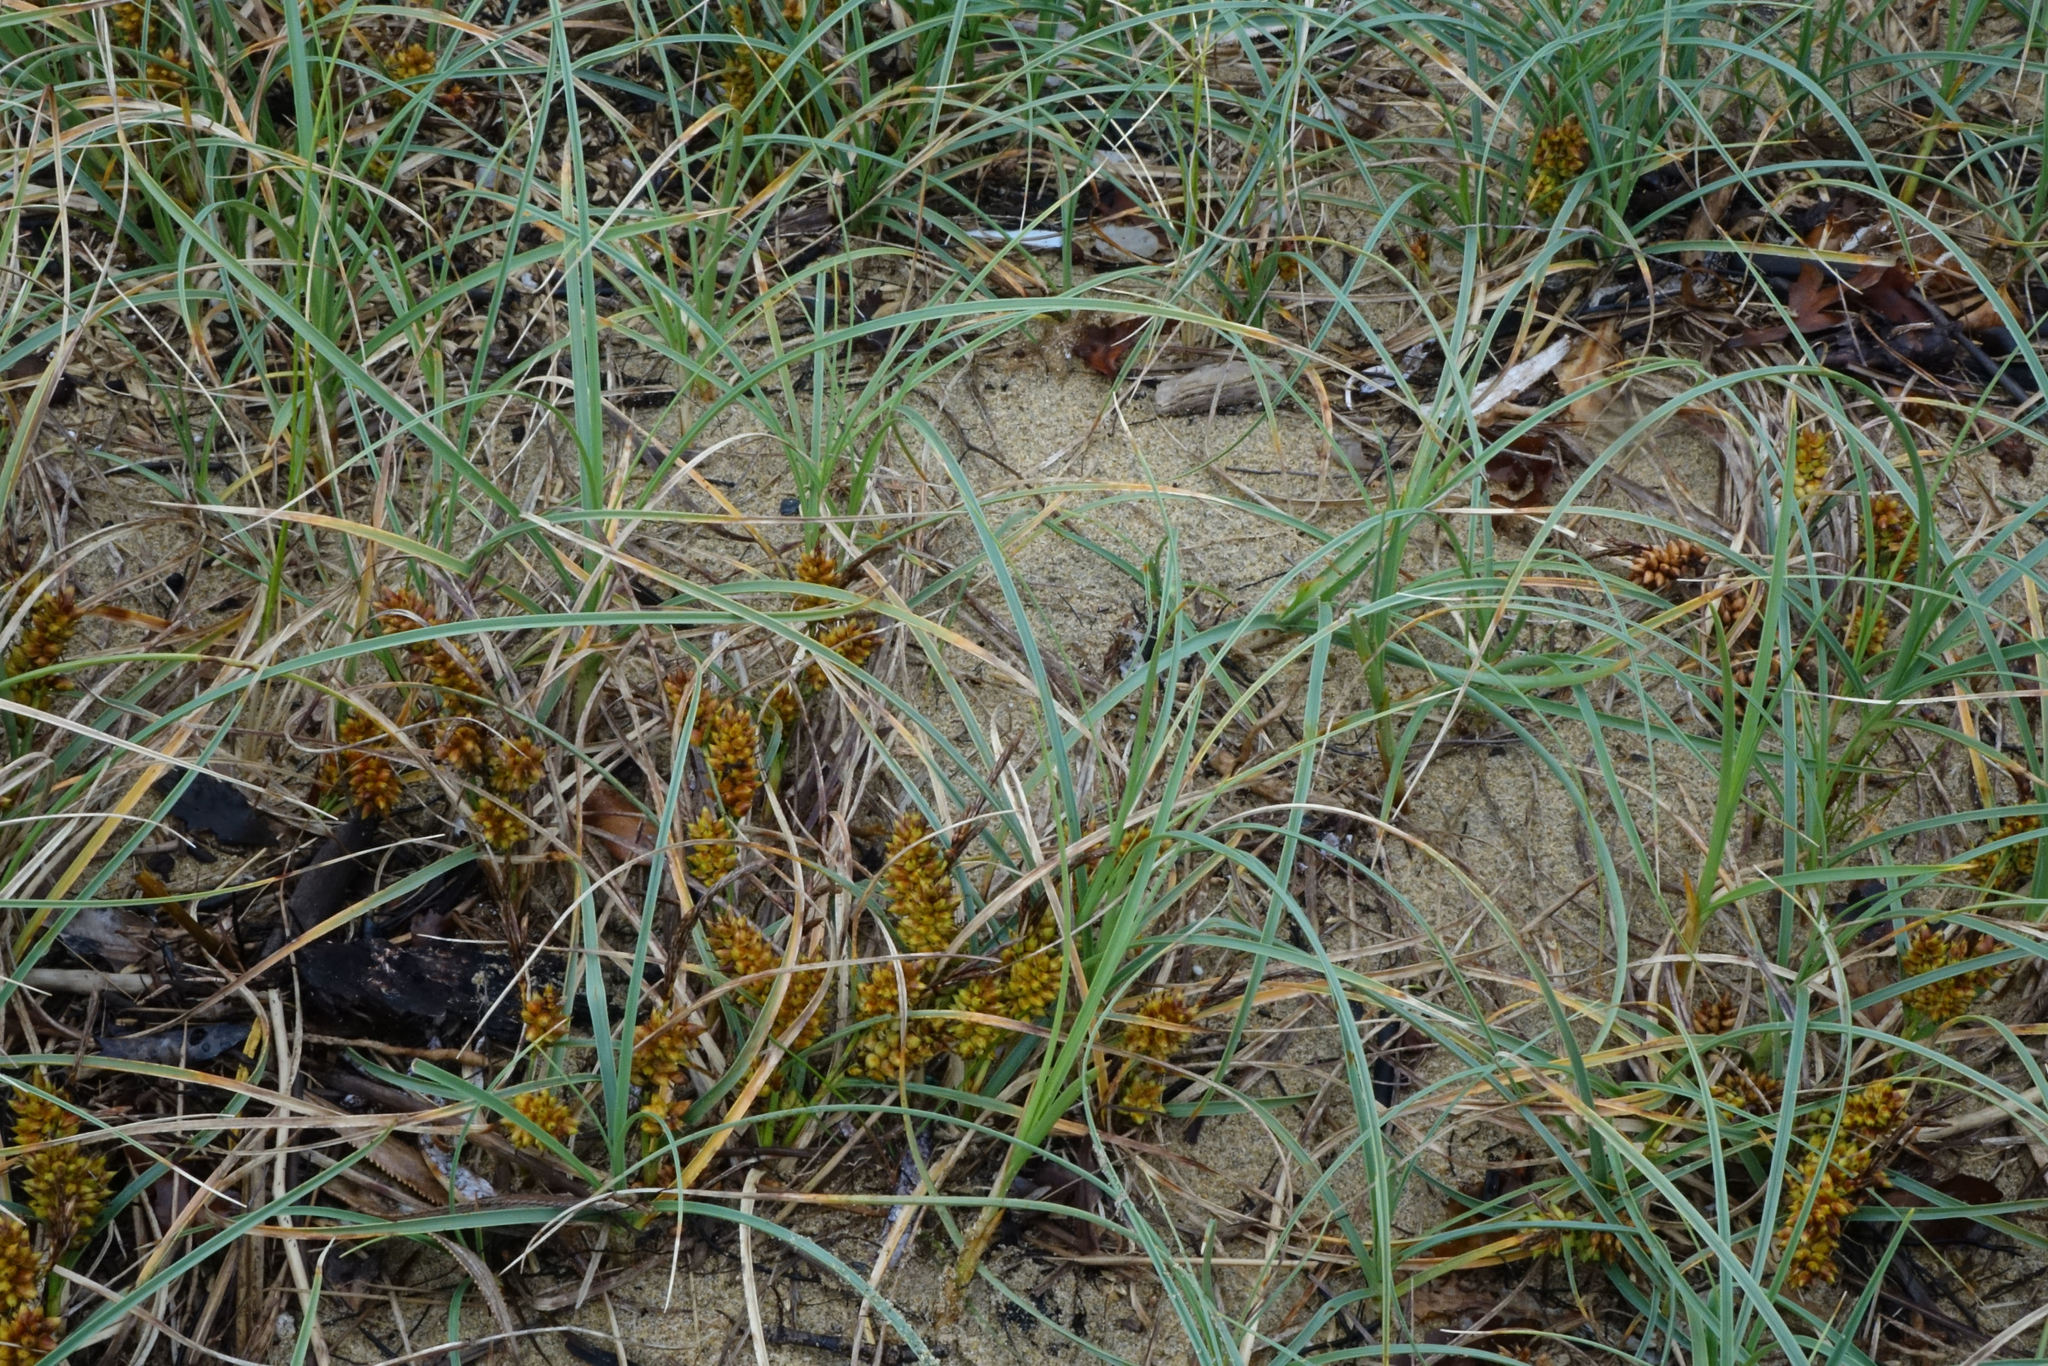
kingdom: Plantae
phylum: Tracheophyta
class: Liliopsida
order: Poales
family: Cyperaceae
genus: Carex
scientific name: Carex pumila
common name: Dwarf sedge
